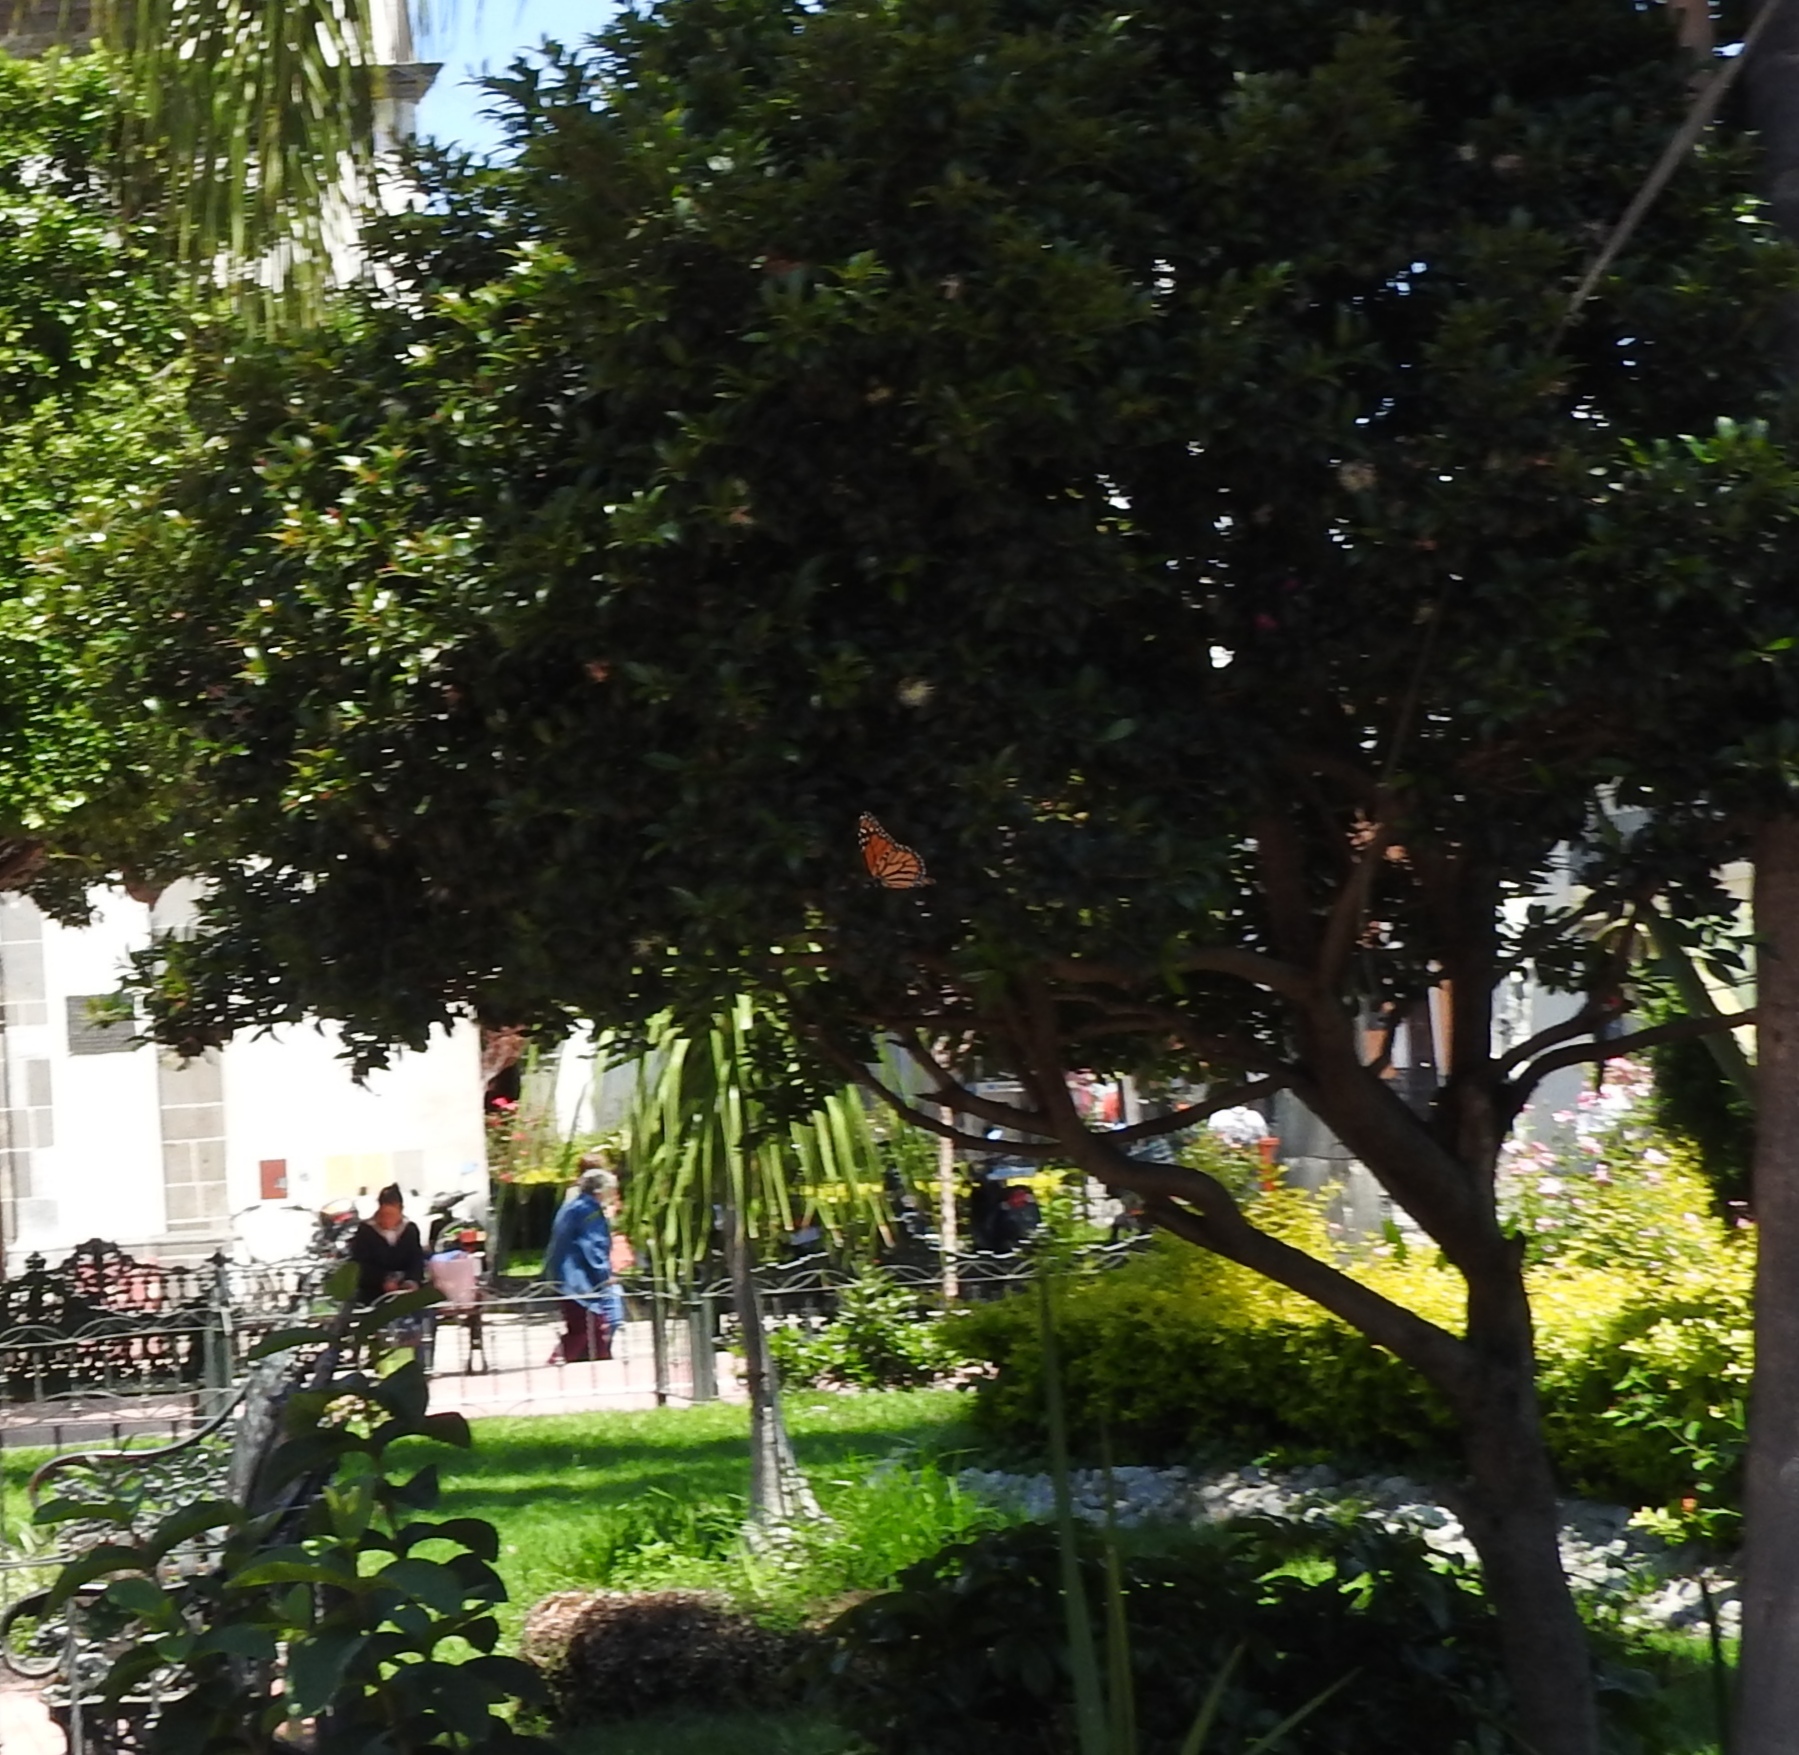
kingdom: Animalia
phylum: Arthropoda
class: Insecta
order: Lepidoptera
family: Nymphalidae
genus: Danaus
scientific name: Danaus plexippus
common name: Monarch
